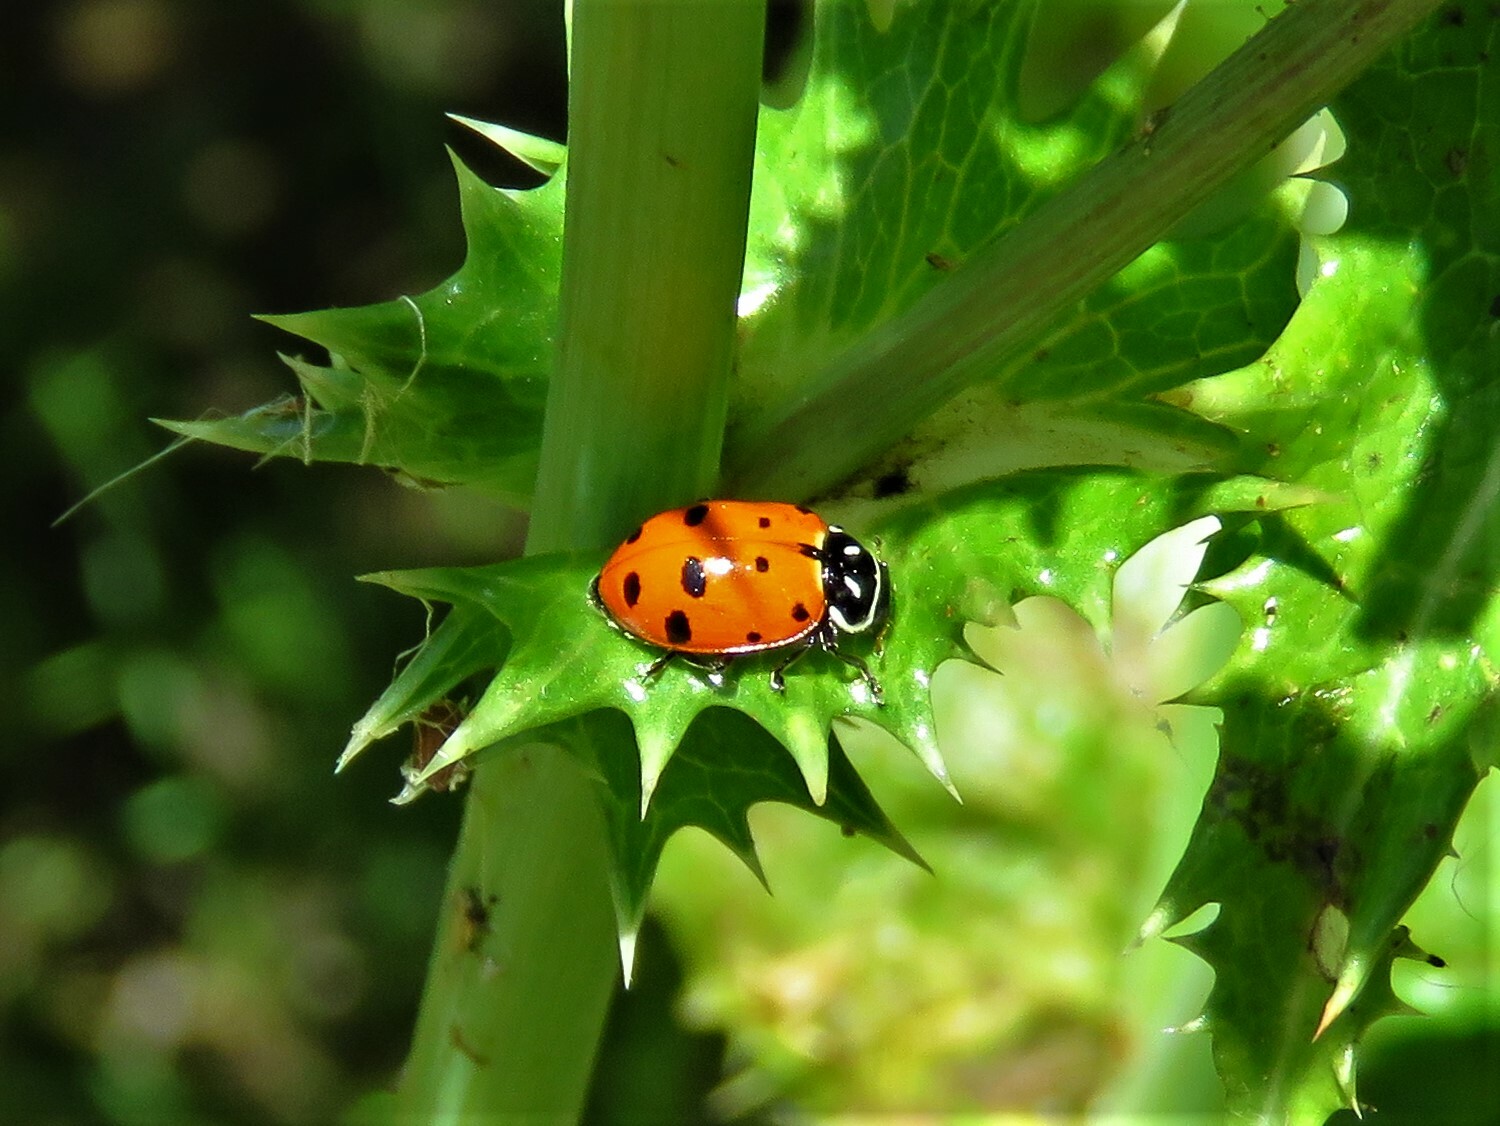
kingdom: Animalia
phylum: Arthropoda
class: Insecta
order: Coleoptera
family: Coccinellidae
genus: Hippodamia
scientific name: Hippodamia convergens
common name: Convergent lady beetle
